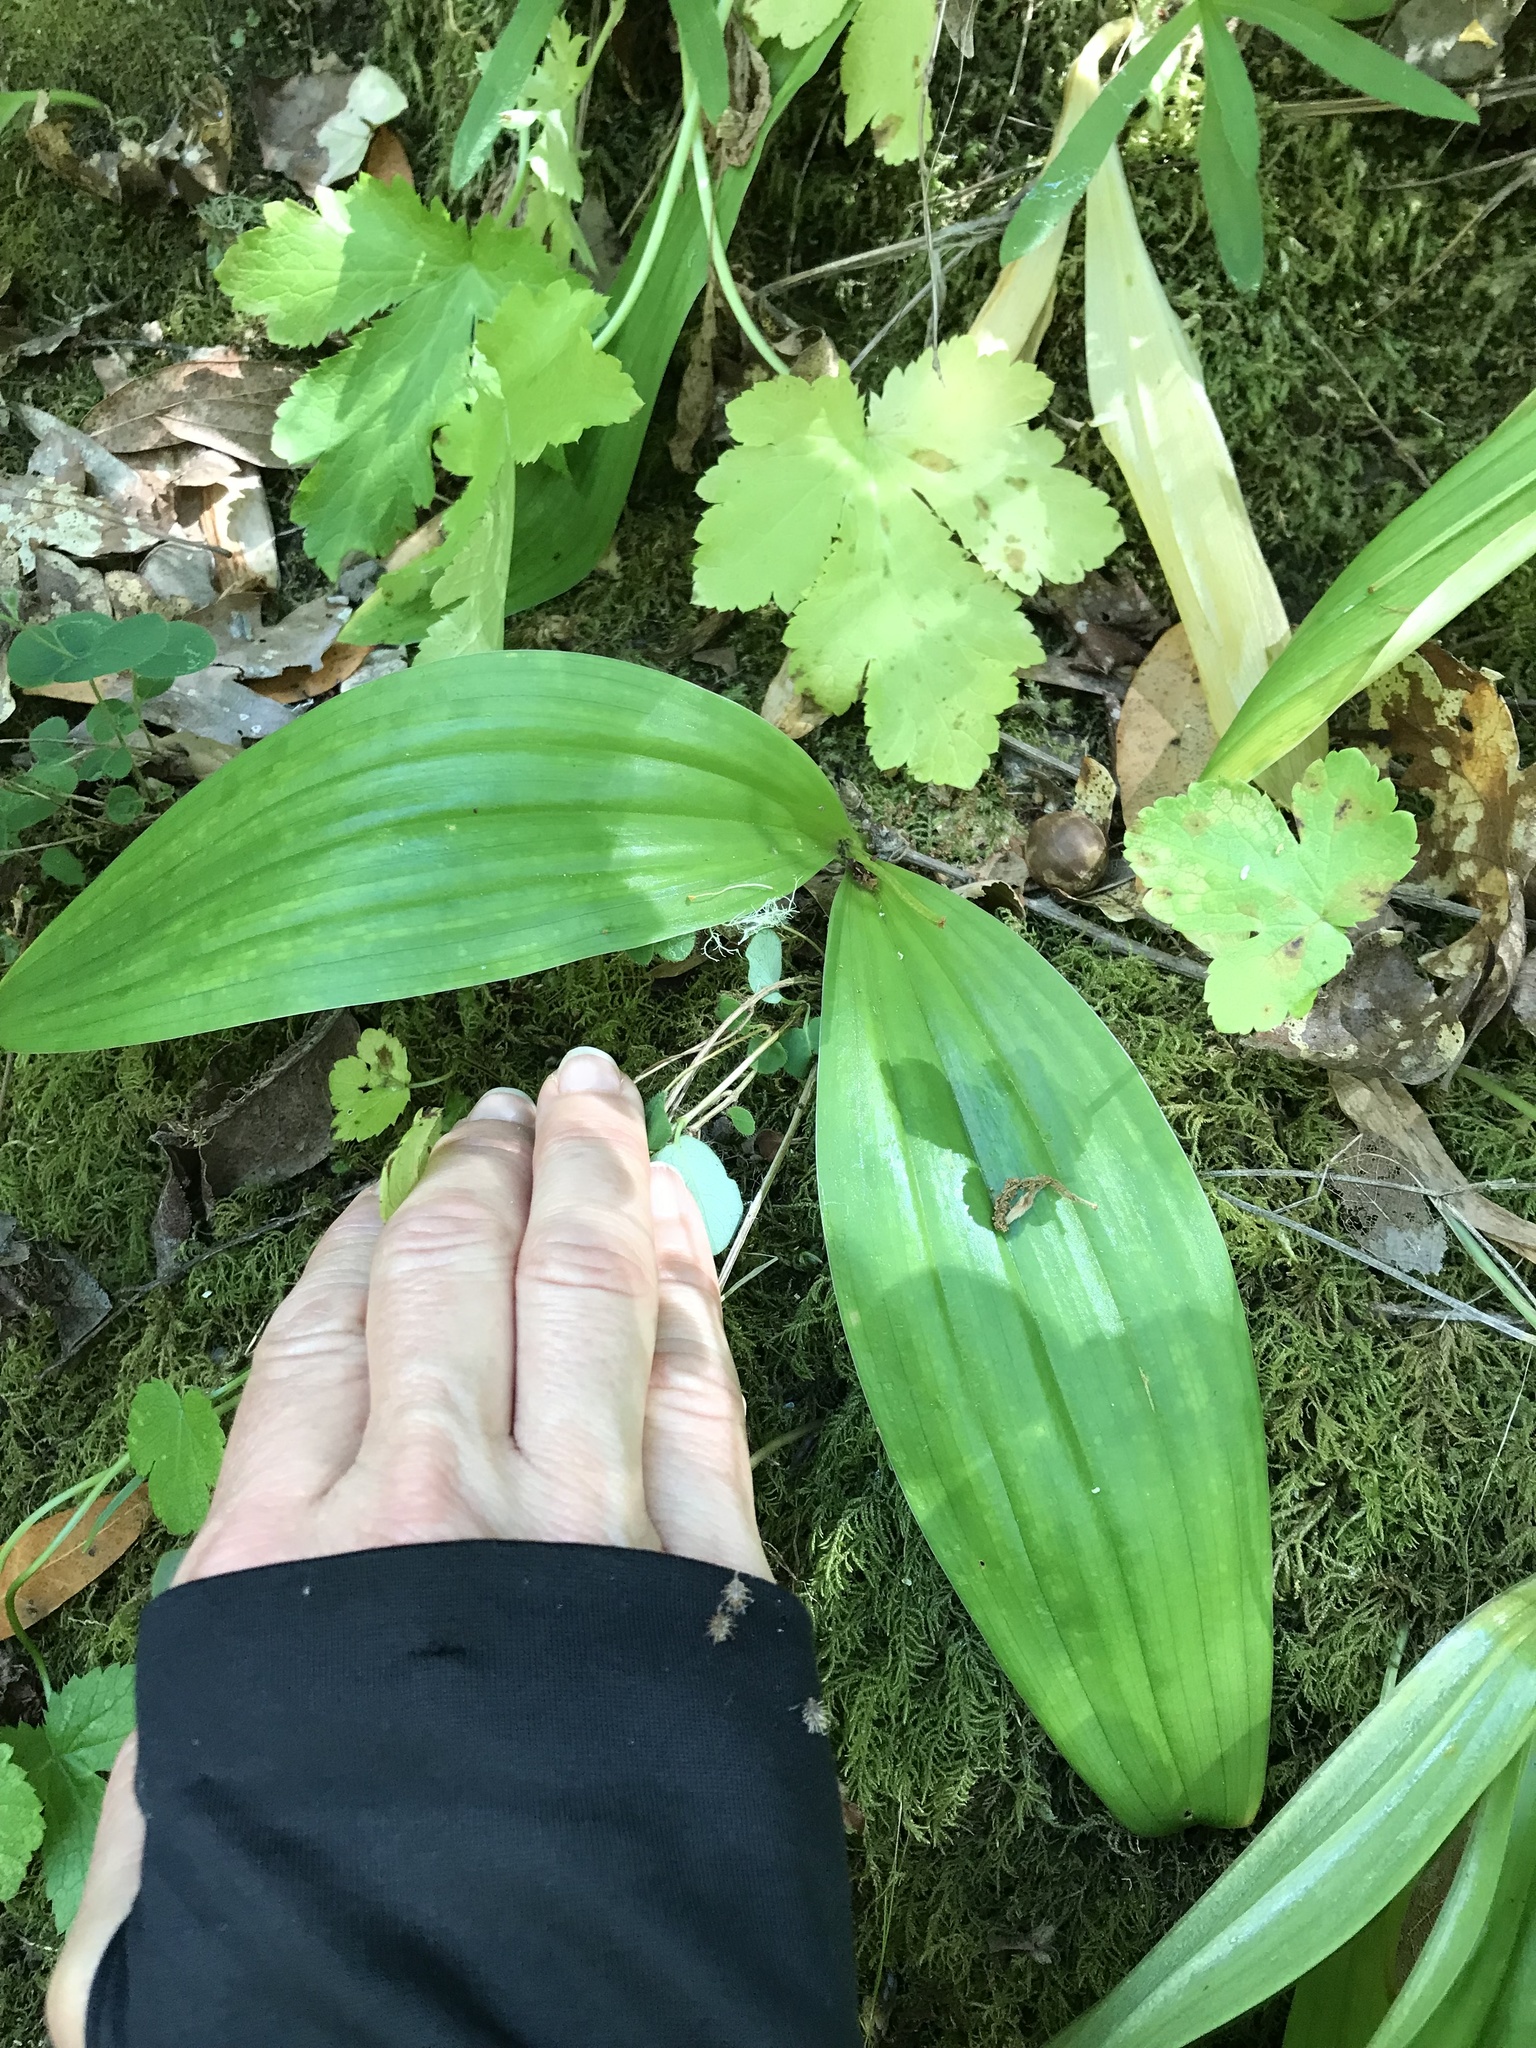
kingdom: Plantae
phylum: Tracheophyta
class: Liliopsida
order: Liliales
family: Liliaceae
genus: Scoliopus
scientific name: Scoliopus bigelovii
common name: Foetid adder's-tongue
